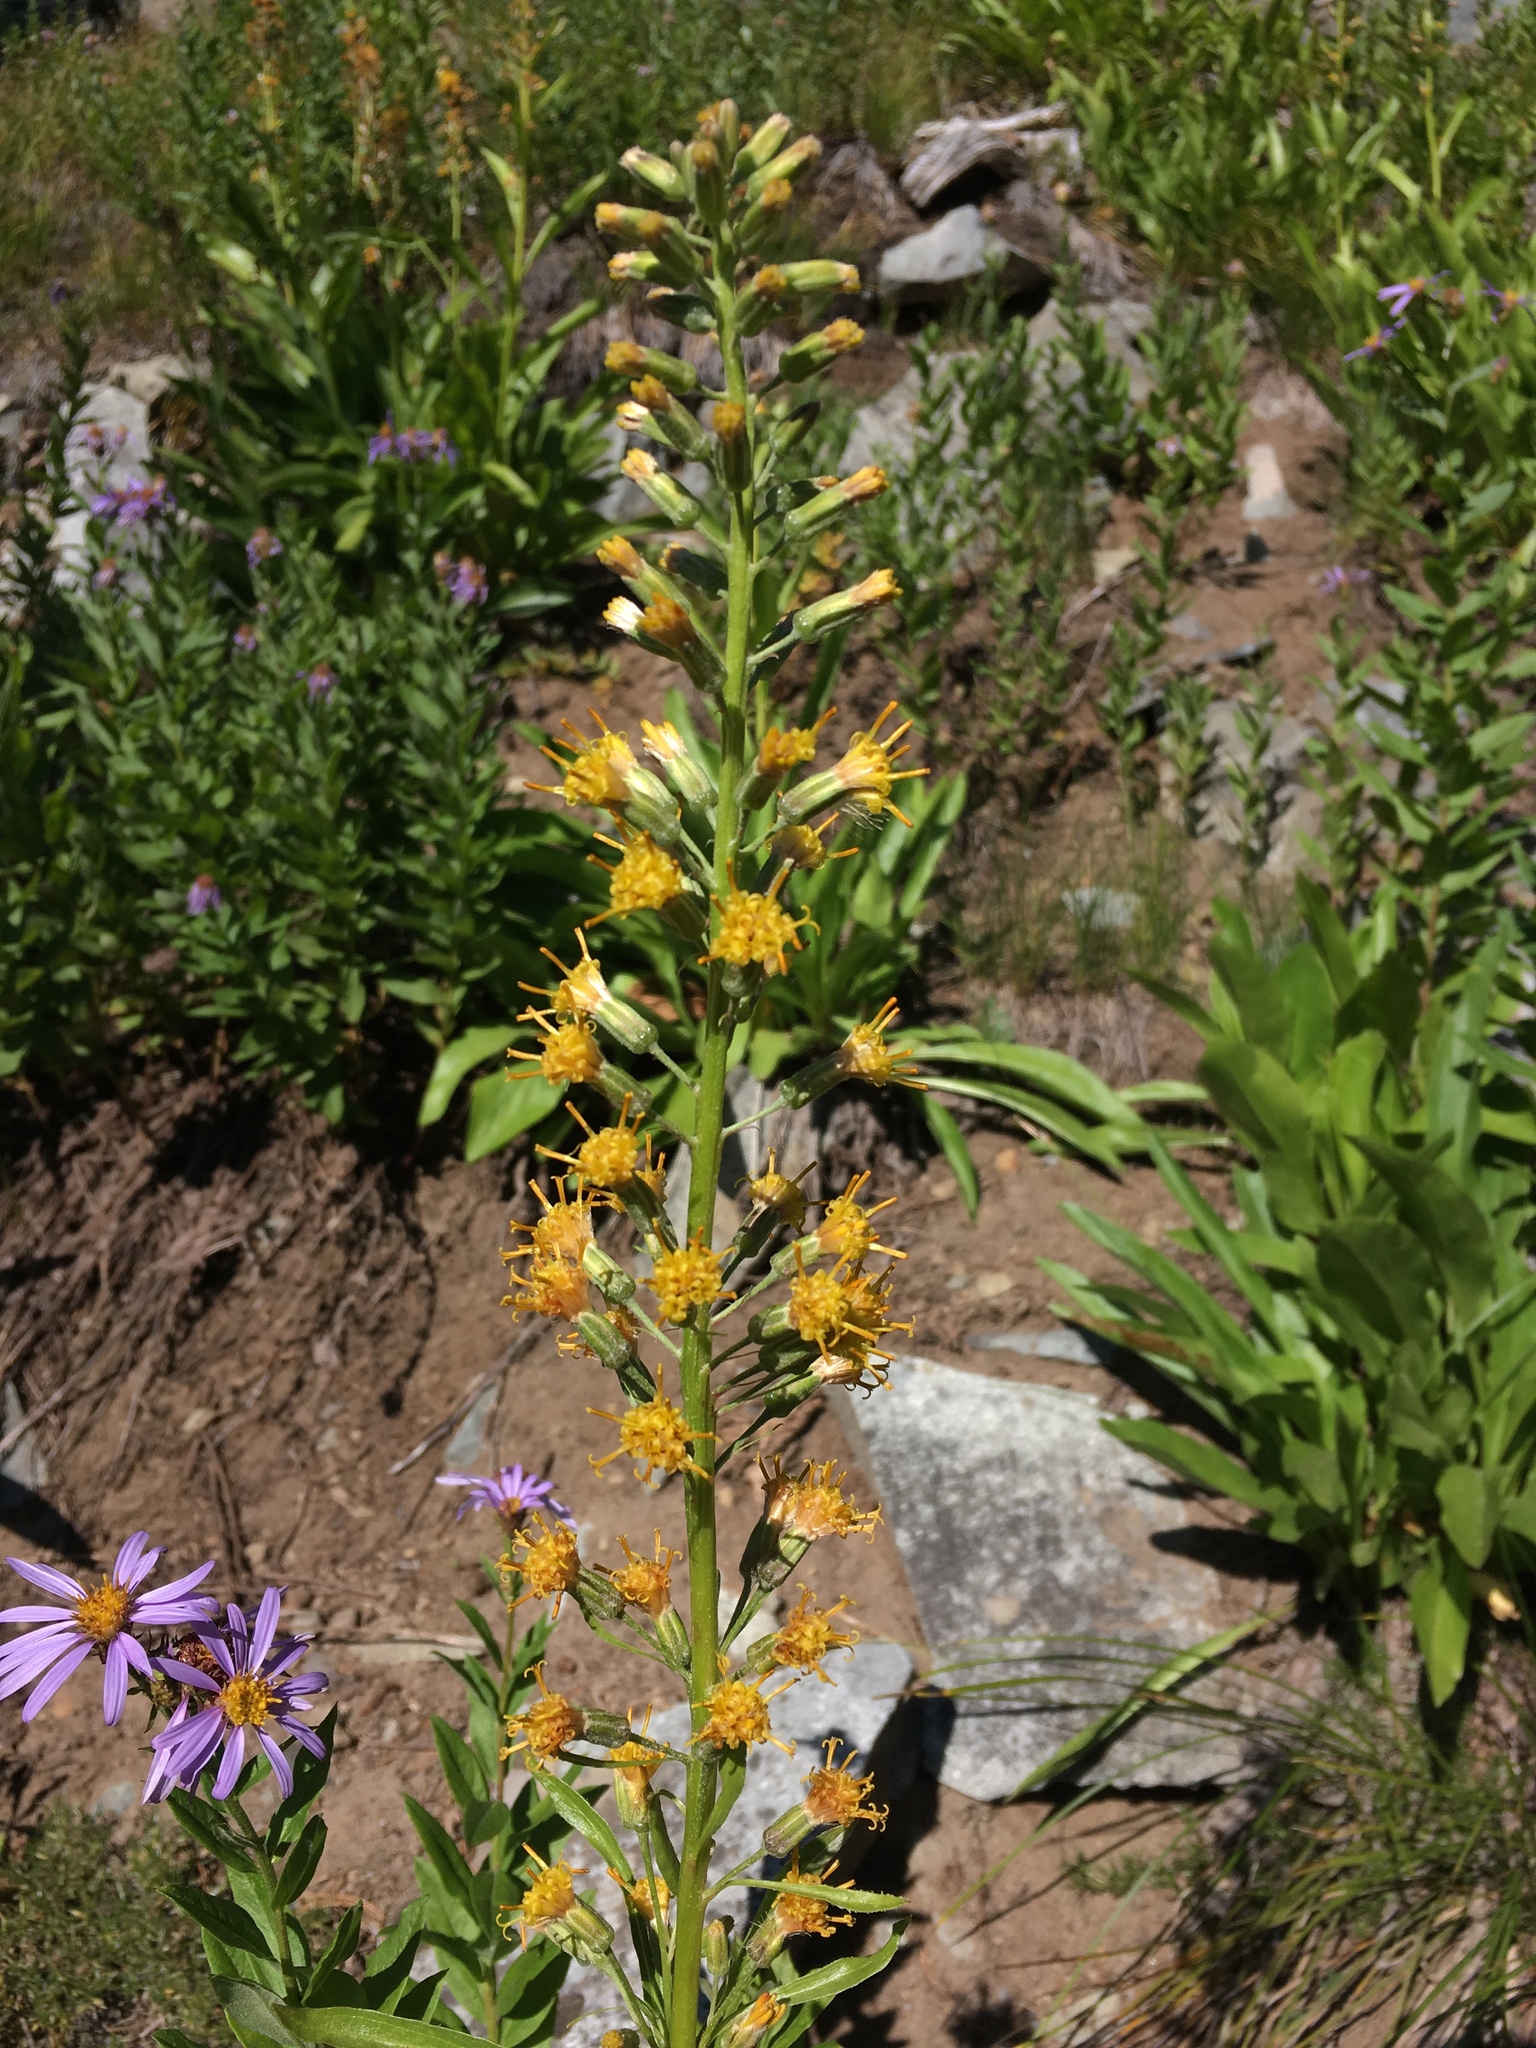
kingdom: Plantae
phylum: Tracheophyta
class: Magnoliopsida
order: Asterales
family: Asteraceae
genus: Rainiera
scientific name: Rainiera stricta
